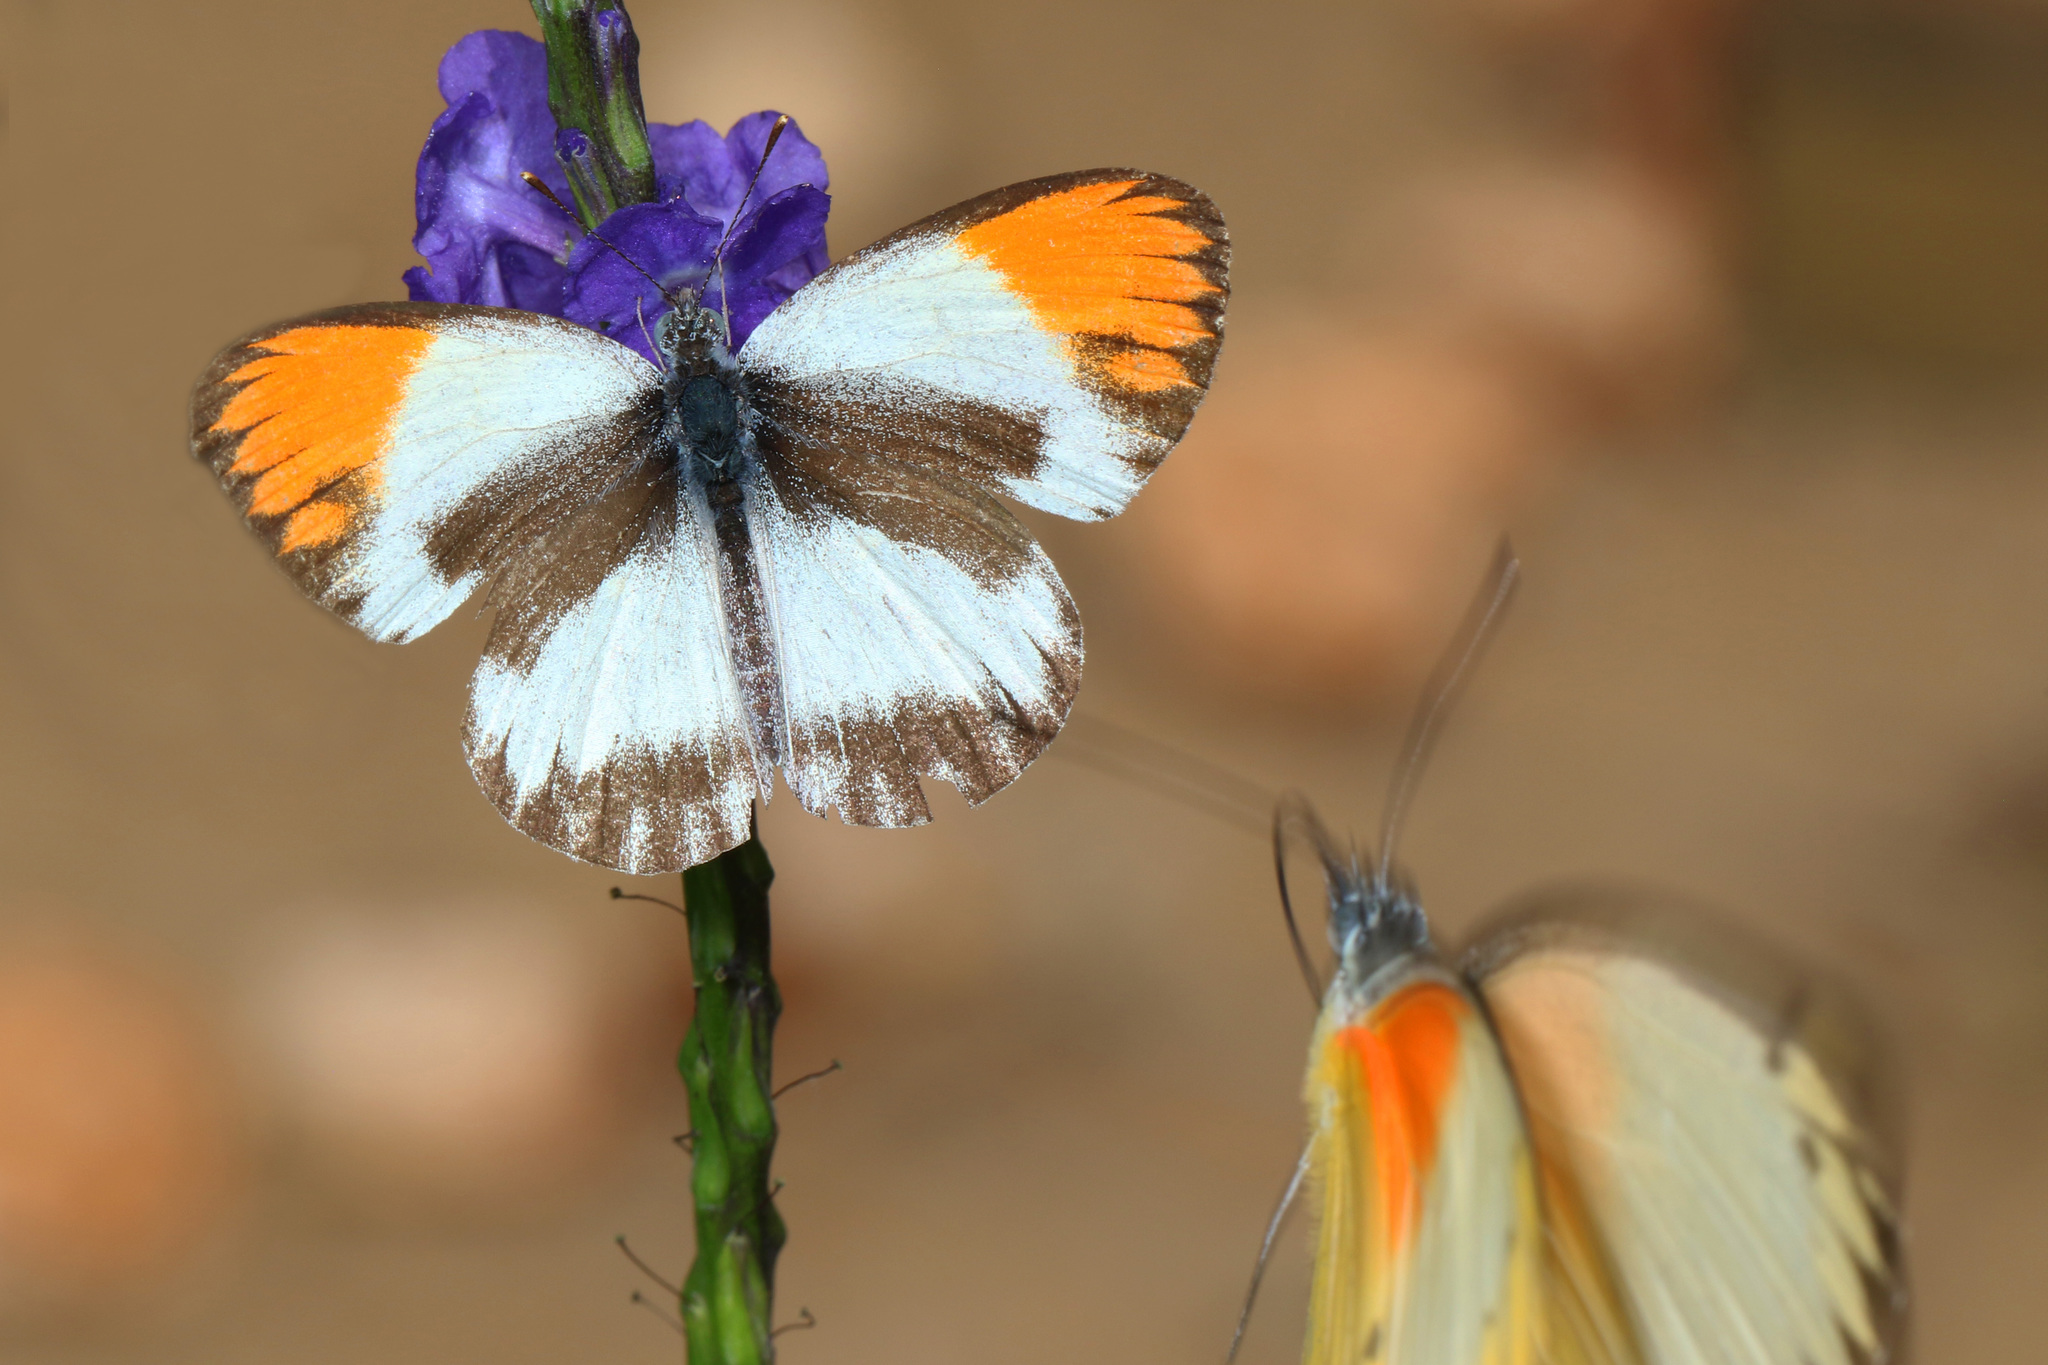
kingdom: Animalia
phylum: Arthropoda
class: Insecta
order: Lepidoptera
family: Pieridae
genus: Colotis
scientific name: Colotis evagore
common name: Desert orange-tip
